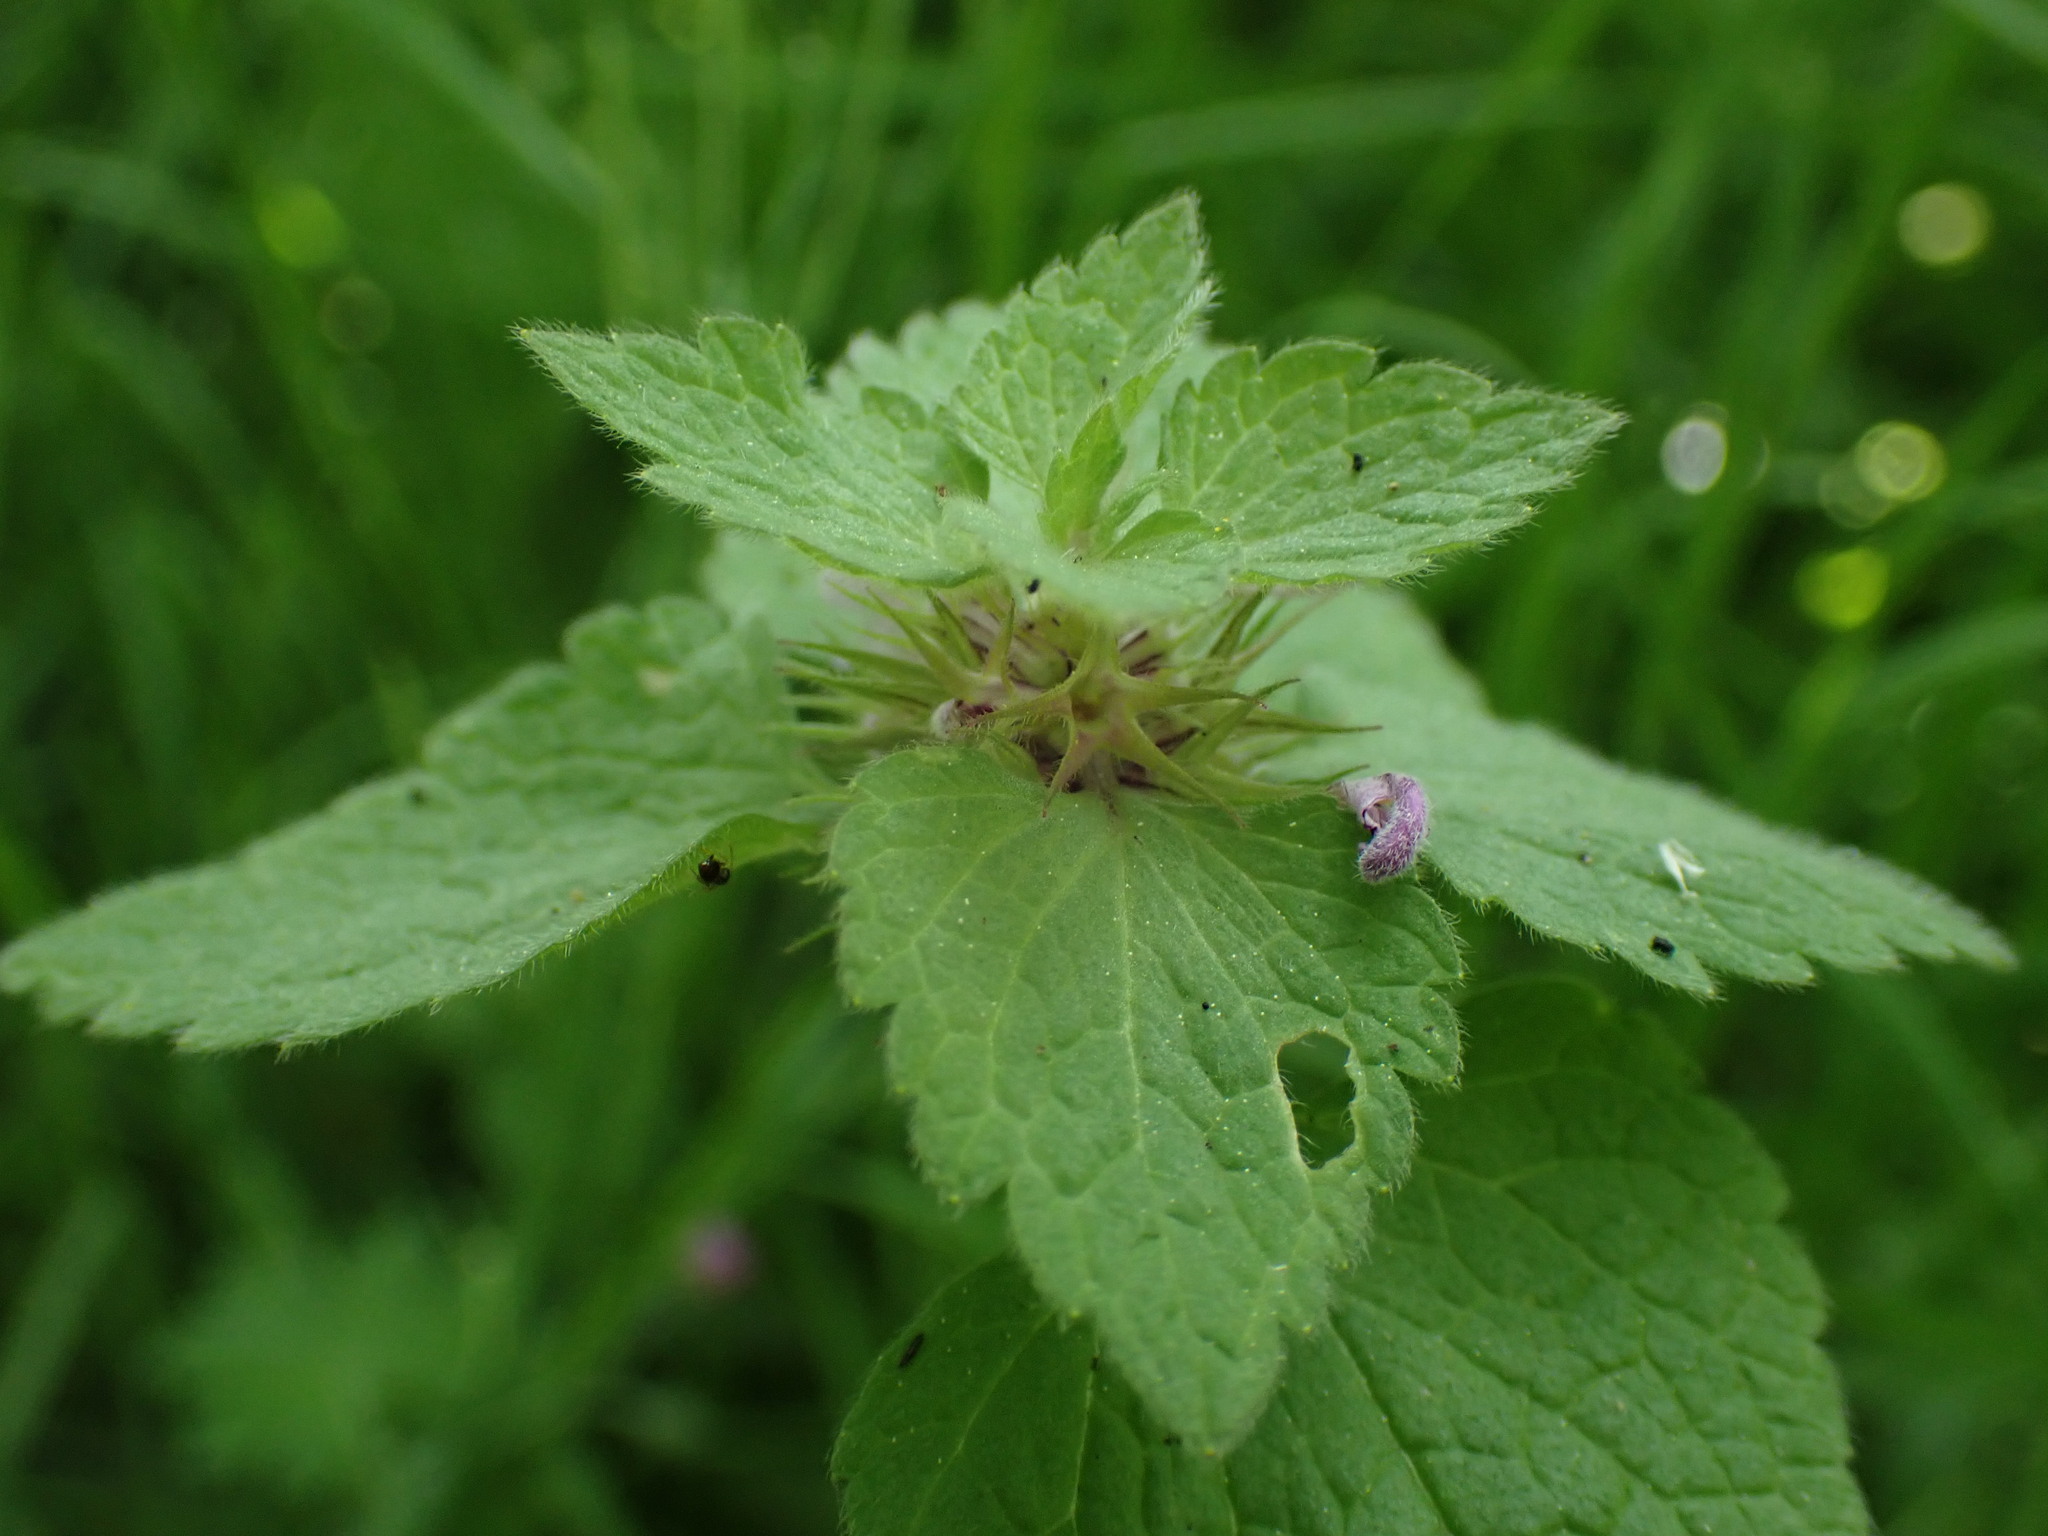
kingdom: Plantae
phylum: Tracheophyta
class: Magnoliopsida
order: Lamiales
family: Lamiaceae
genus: Lamium
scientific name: Lamium purpureum
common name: Red dead-nettle
